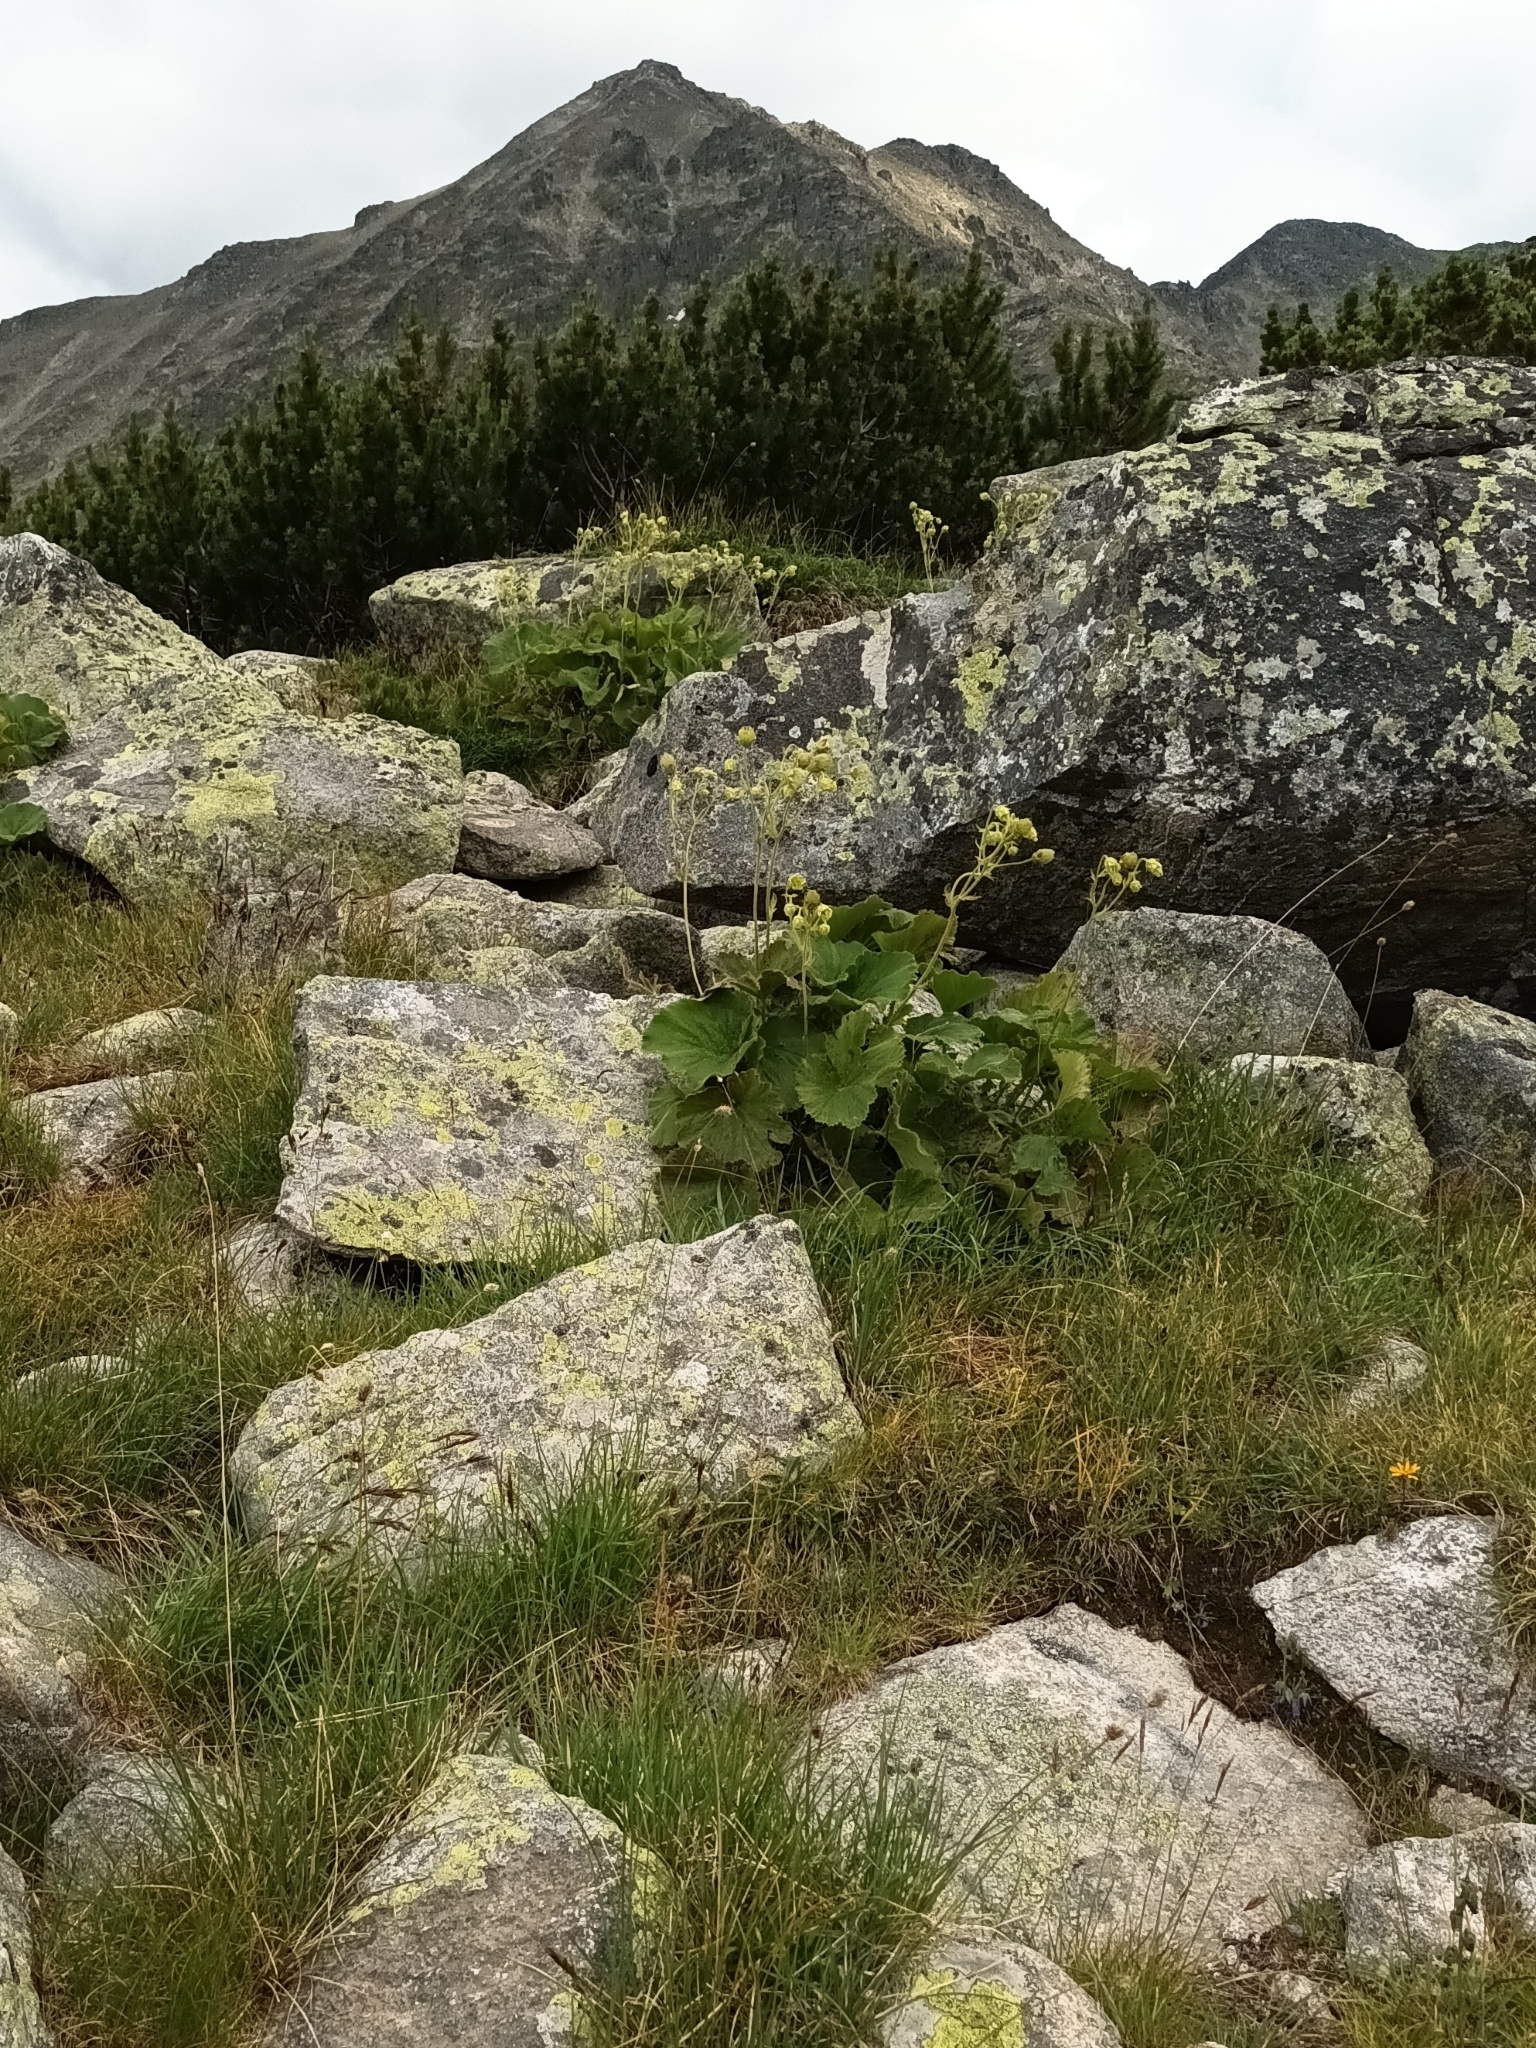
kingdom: Plantae
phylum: Tracheophyta
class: Magnoliopsida
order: Rosales
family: Rosaceae
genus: Geum
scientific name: Geum bulgaricum
